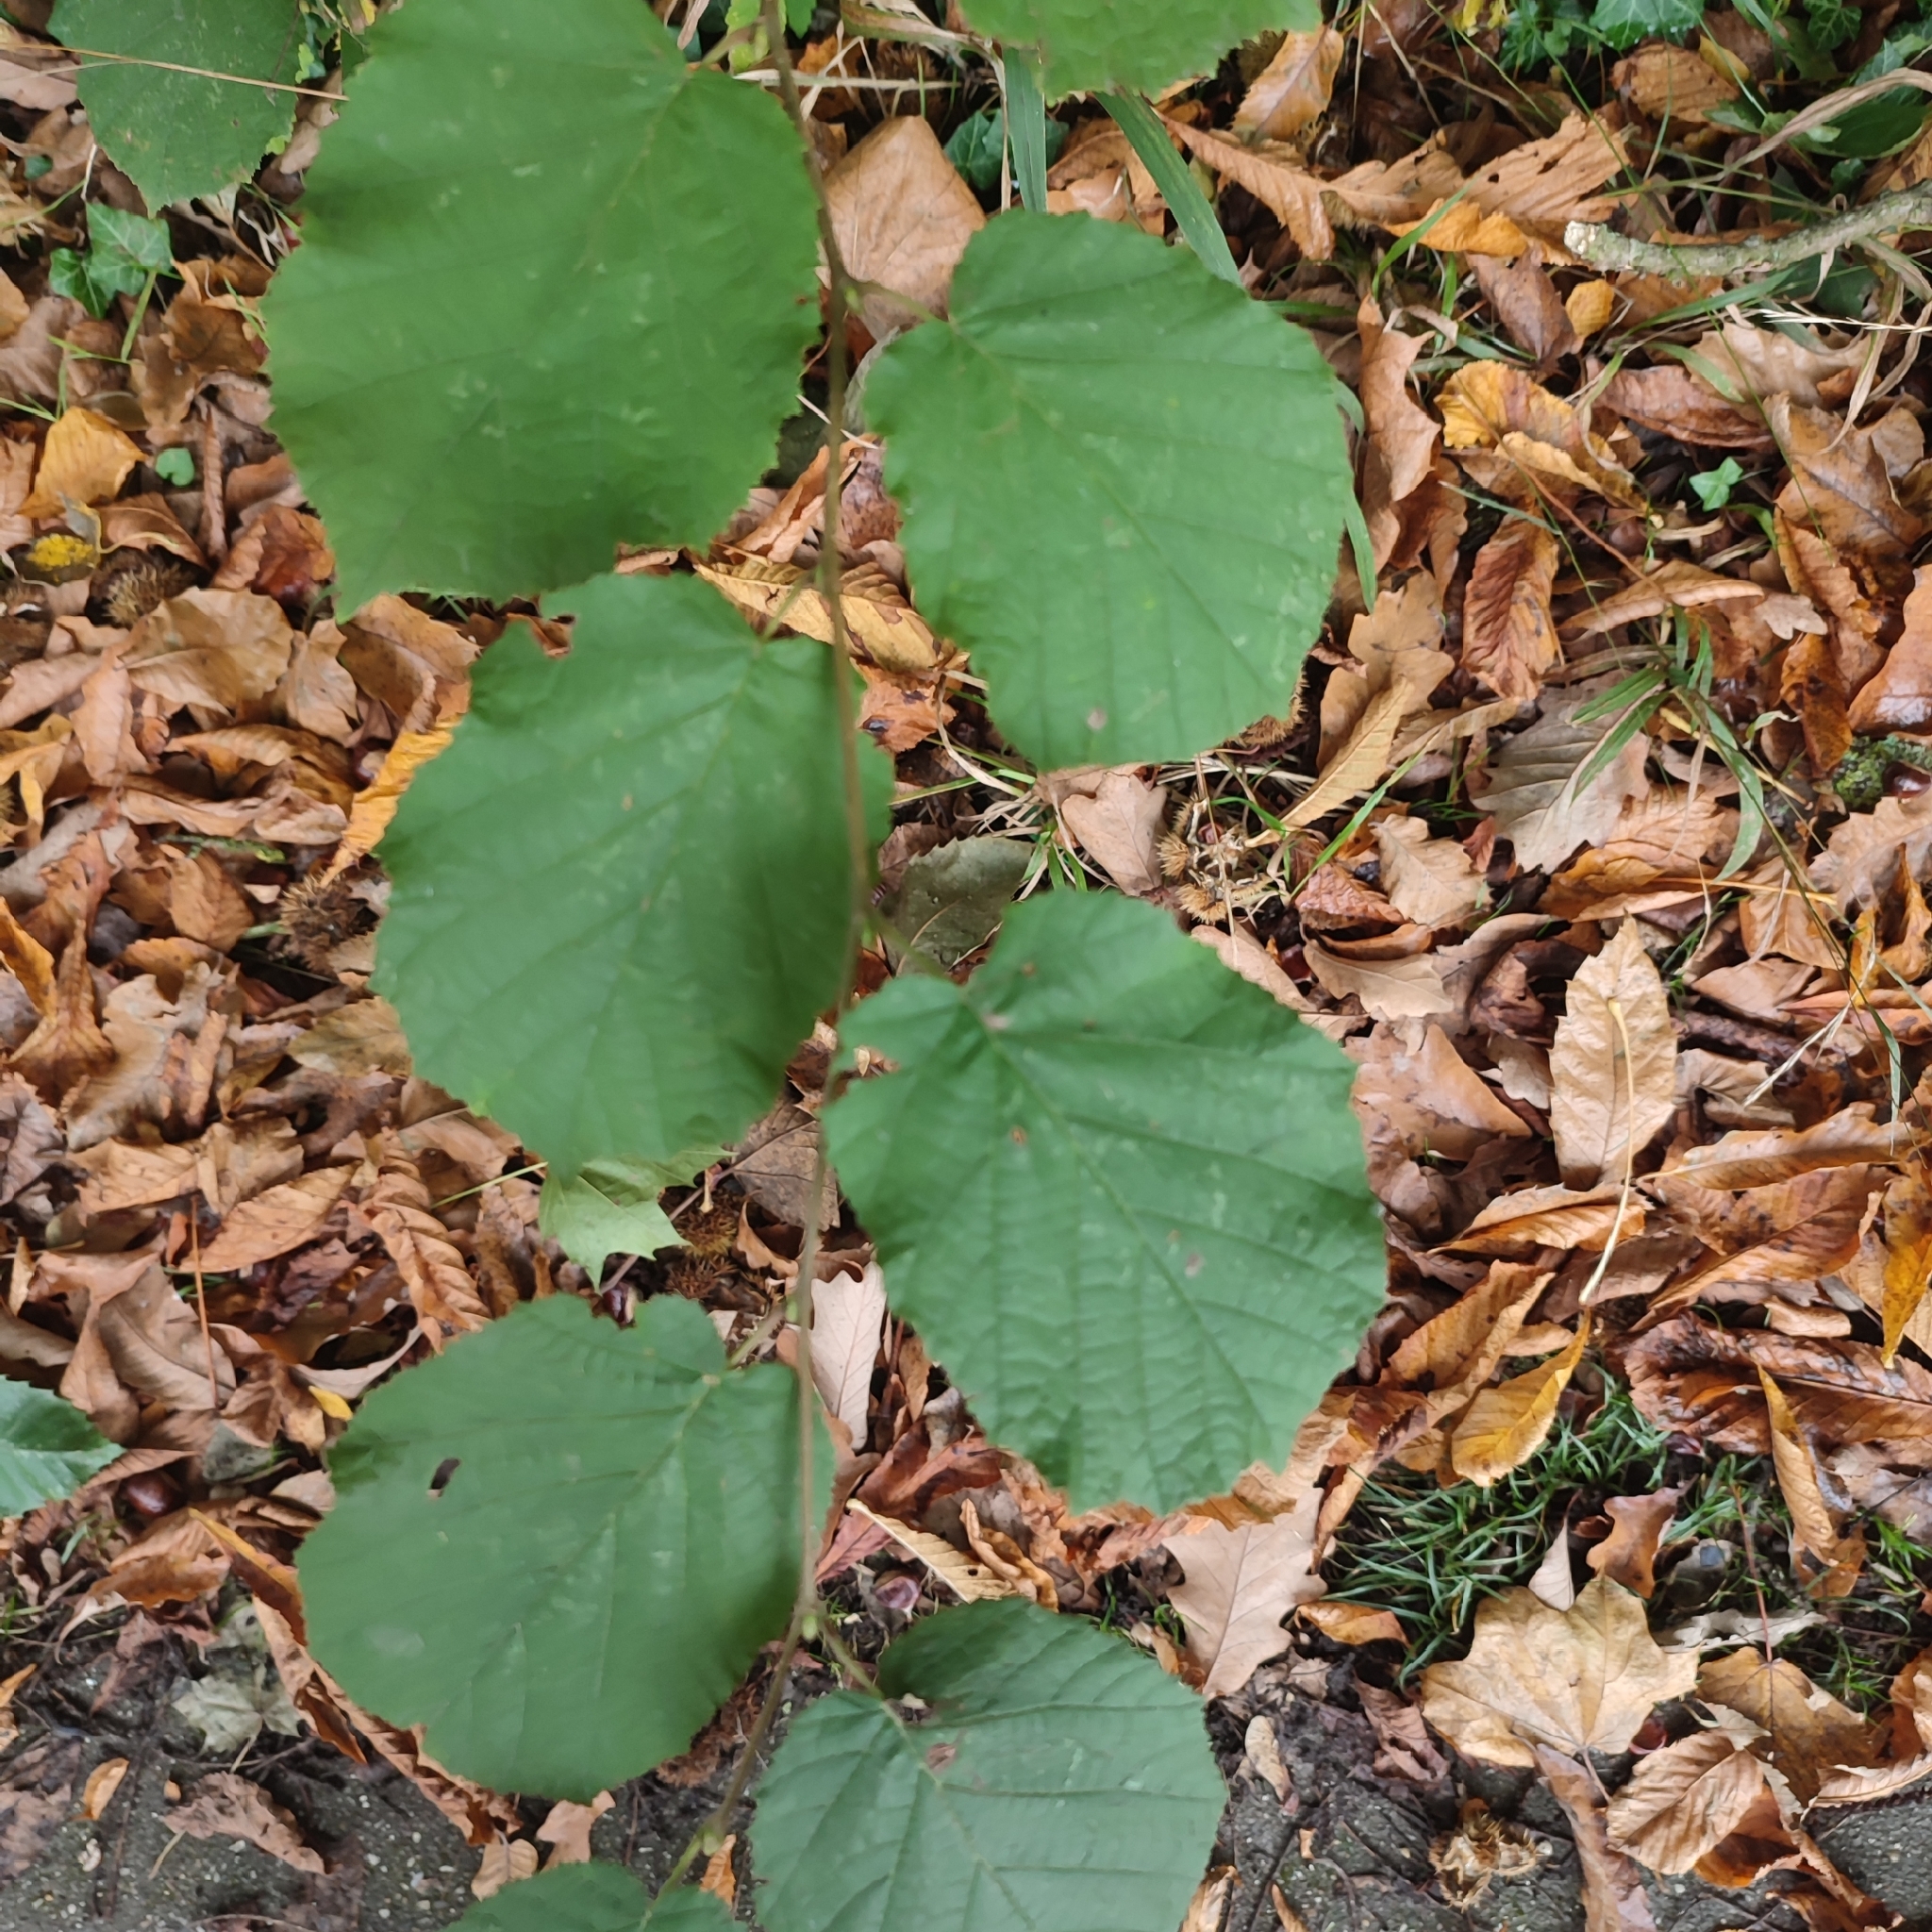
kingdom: Plantae
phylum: Tracheophyta
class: Magnoliopsida
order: Fagales
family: Betulaceae
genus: Corylus
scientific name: Corylus avellana
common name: European hazel
